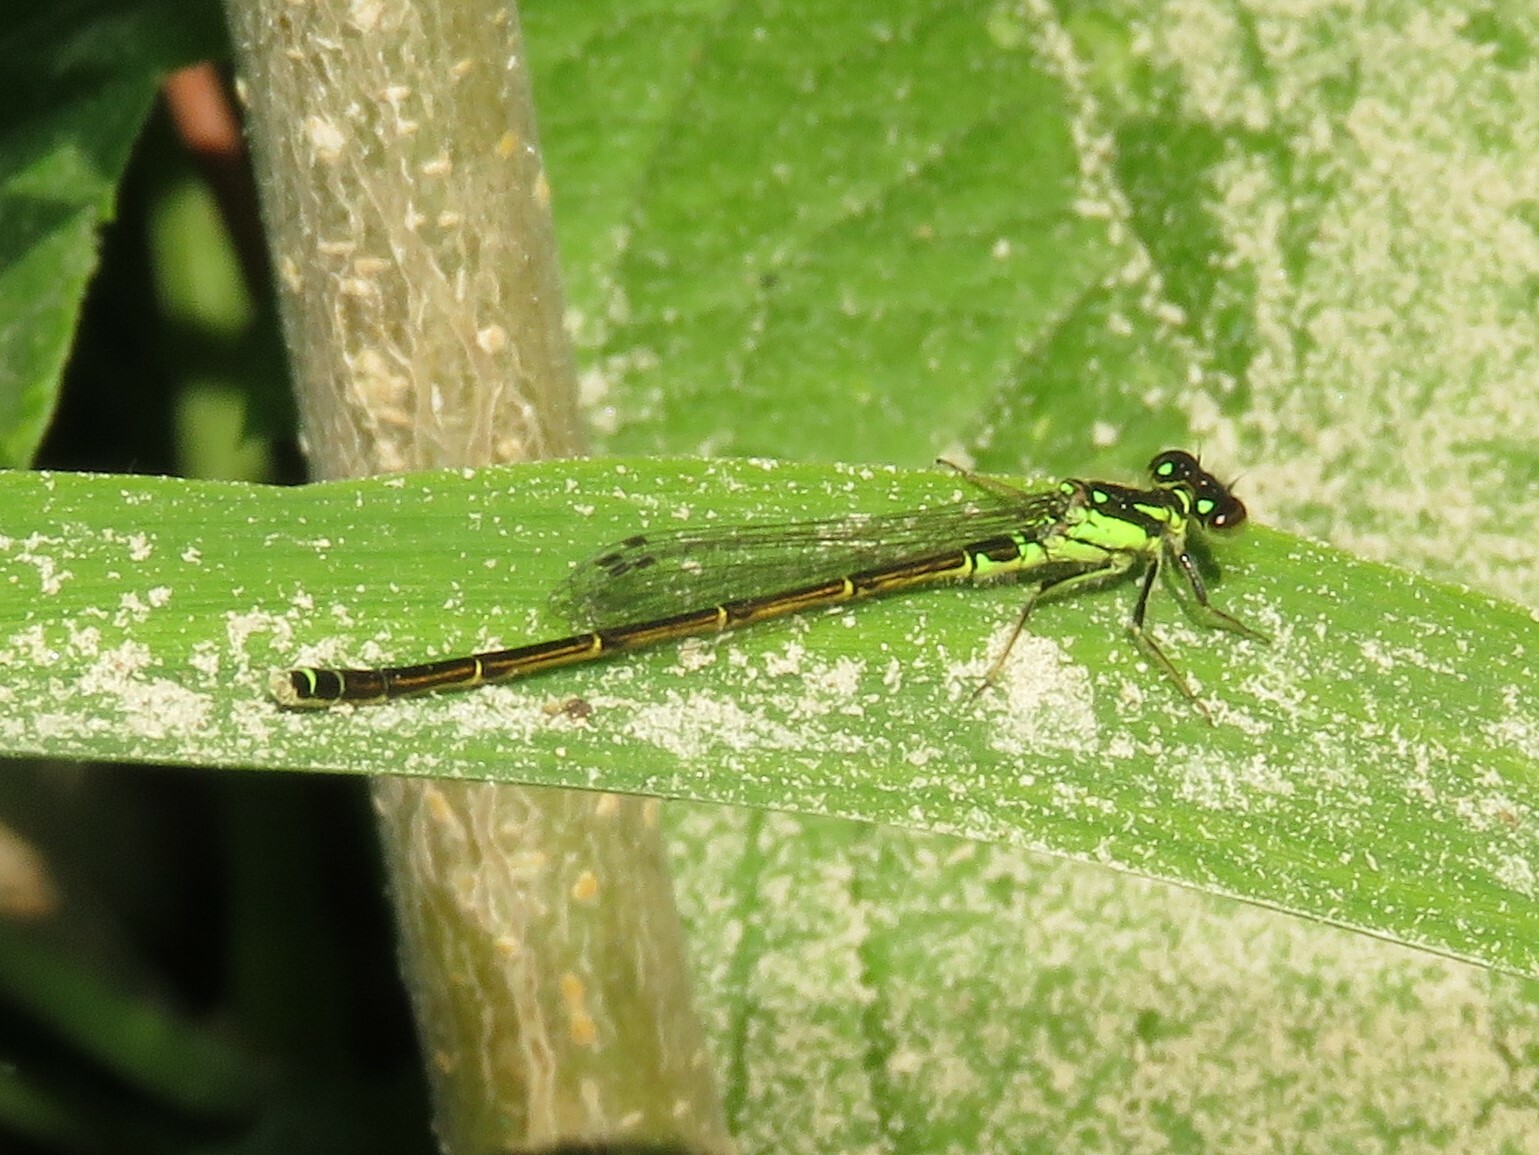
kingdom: Animalia
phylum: Arthropoda
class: Insecta
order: Odonata
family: Coenagrionidae
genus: Ischnura
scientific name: Ischnura posita
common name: Fragile forktail
